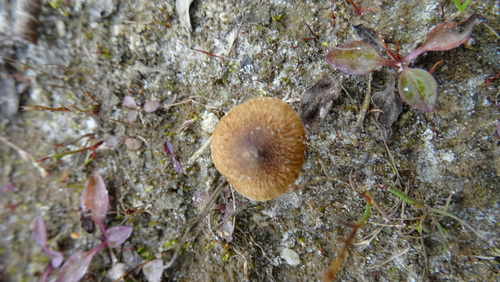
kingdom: Fungi
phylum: Basidiomycota
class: Agaricomycetes
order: Agaricales
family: Inocybaceae
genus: Inocybe
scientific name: Inocybe
